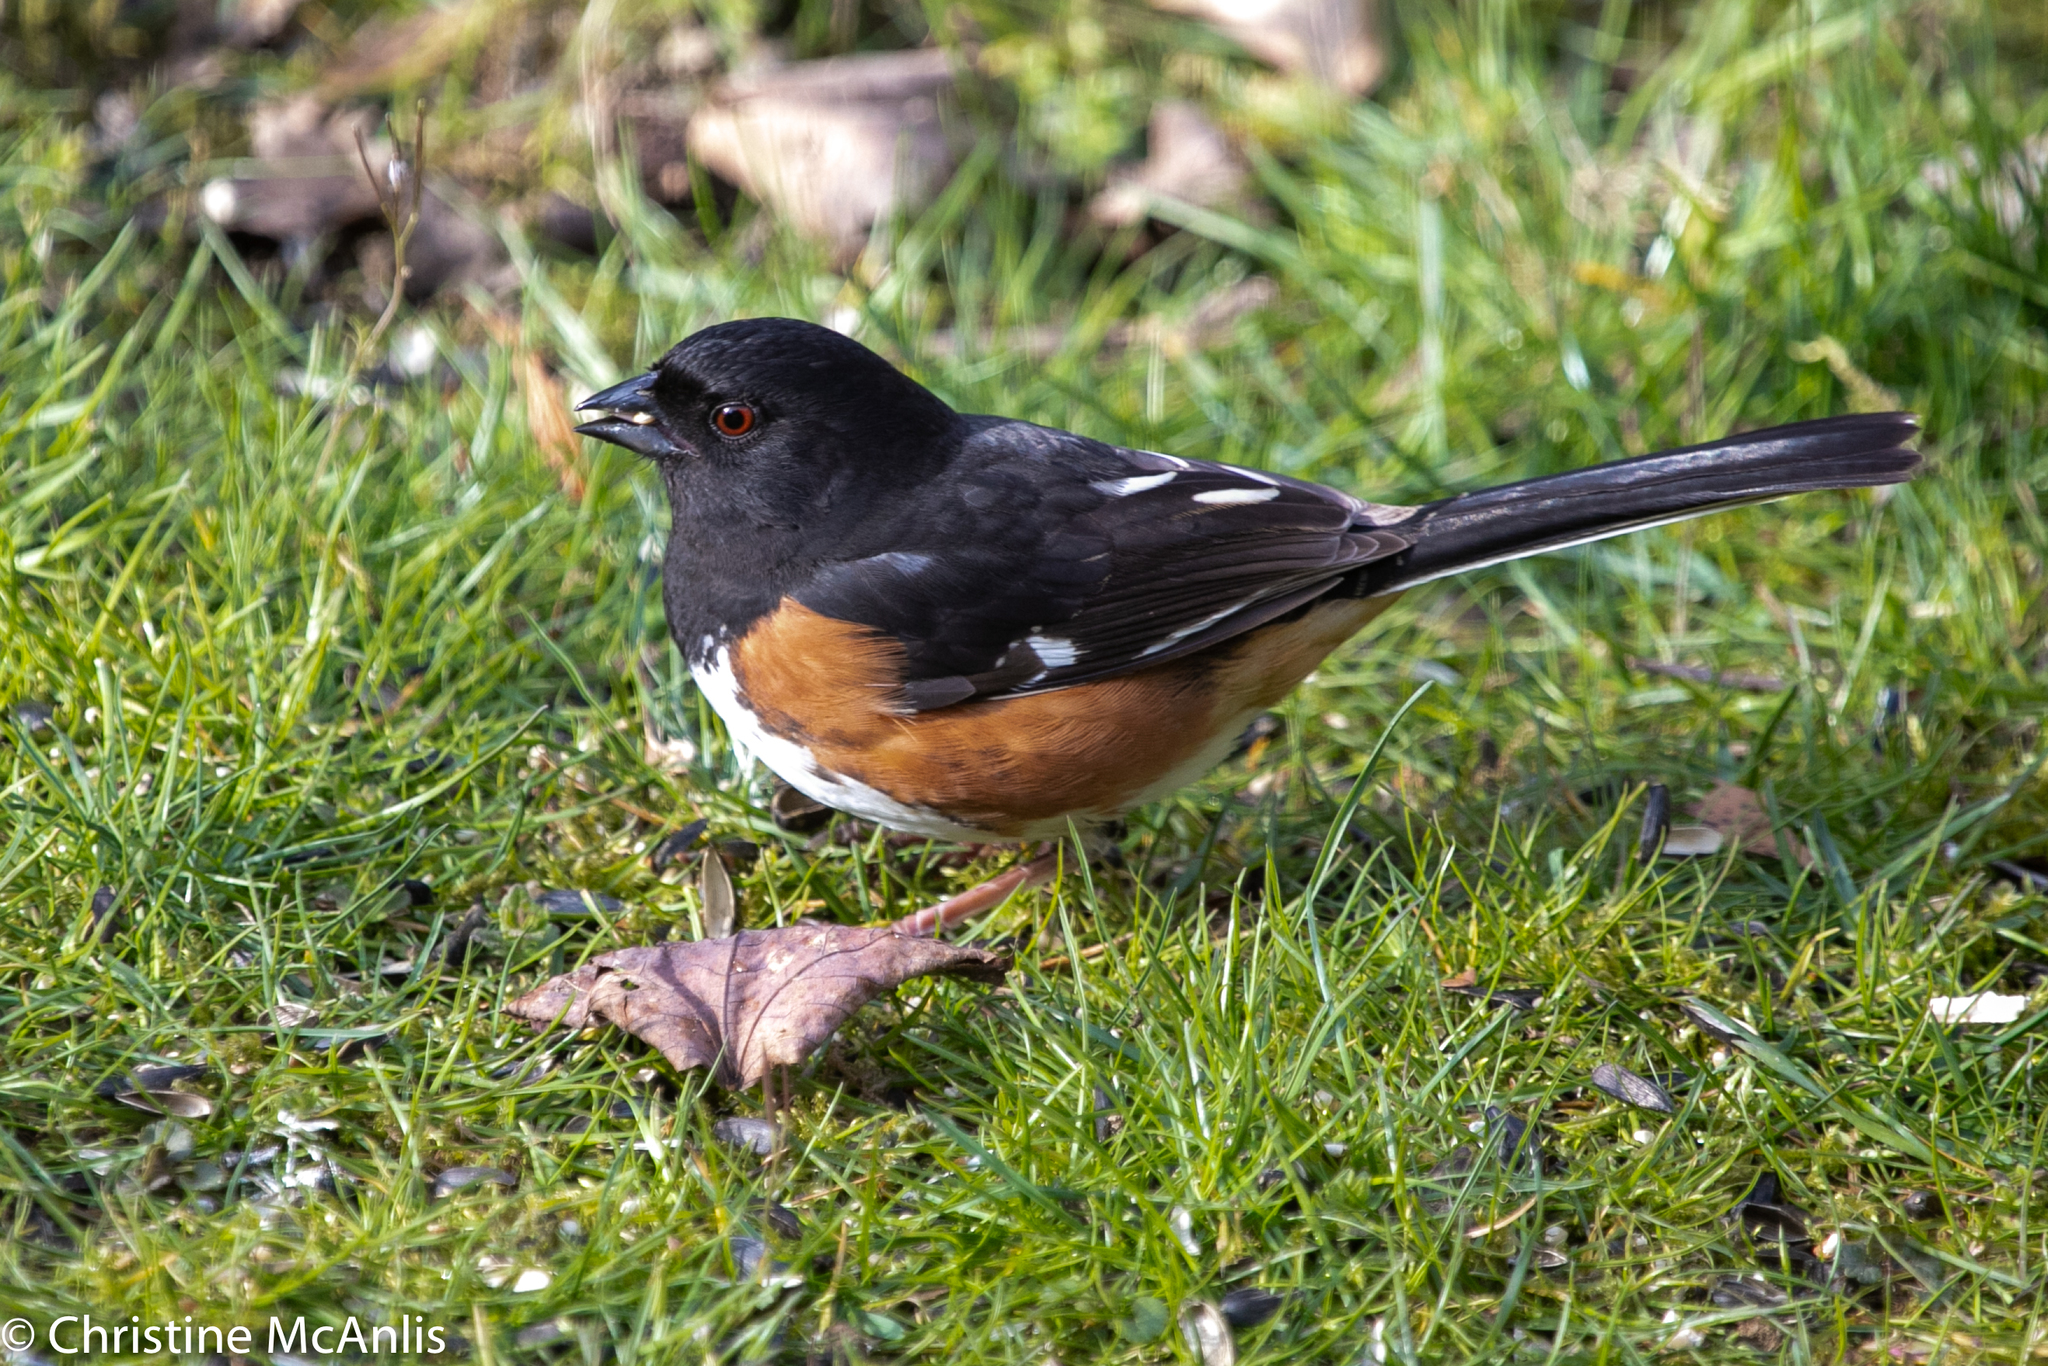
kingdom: Animalia
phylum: Chordata
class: Aves
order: Passeriformes
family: Passerellidae
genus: Pipilo
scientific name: Pipilo erythrophthalmus
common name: Eastern towhee
